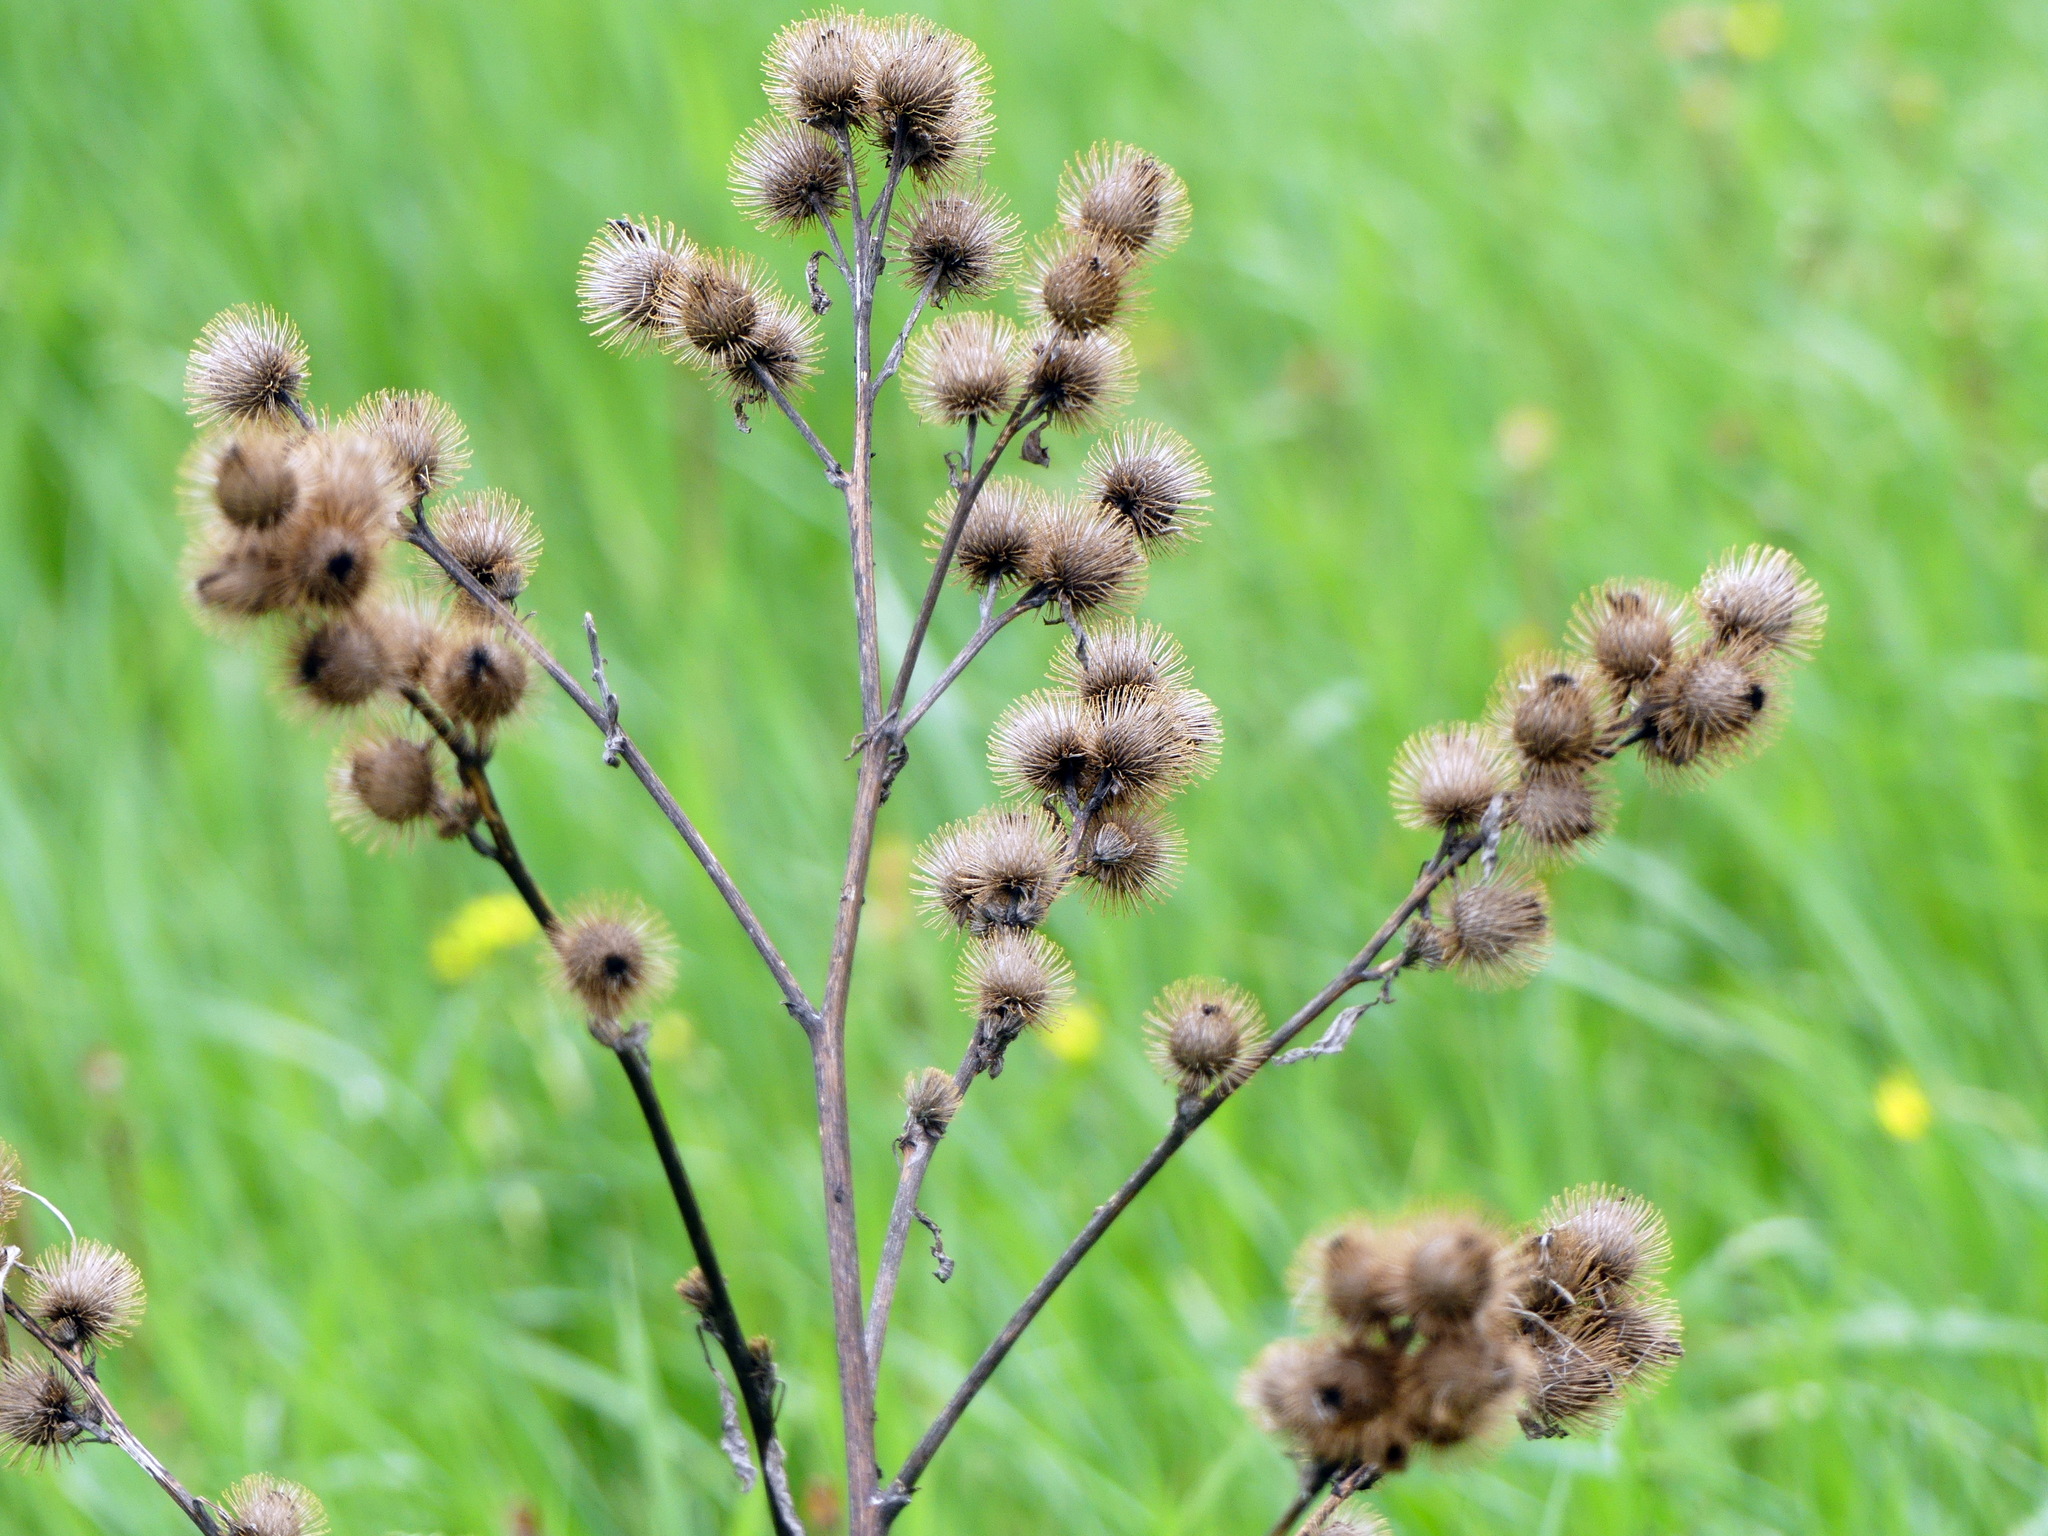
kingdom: Plantae
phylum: Tracheophyta
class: Magnoliopsida
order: Asterales
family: Asteraceae
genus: Arctium
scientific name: Arctium minus
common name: Lesser burdock
